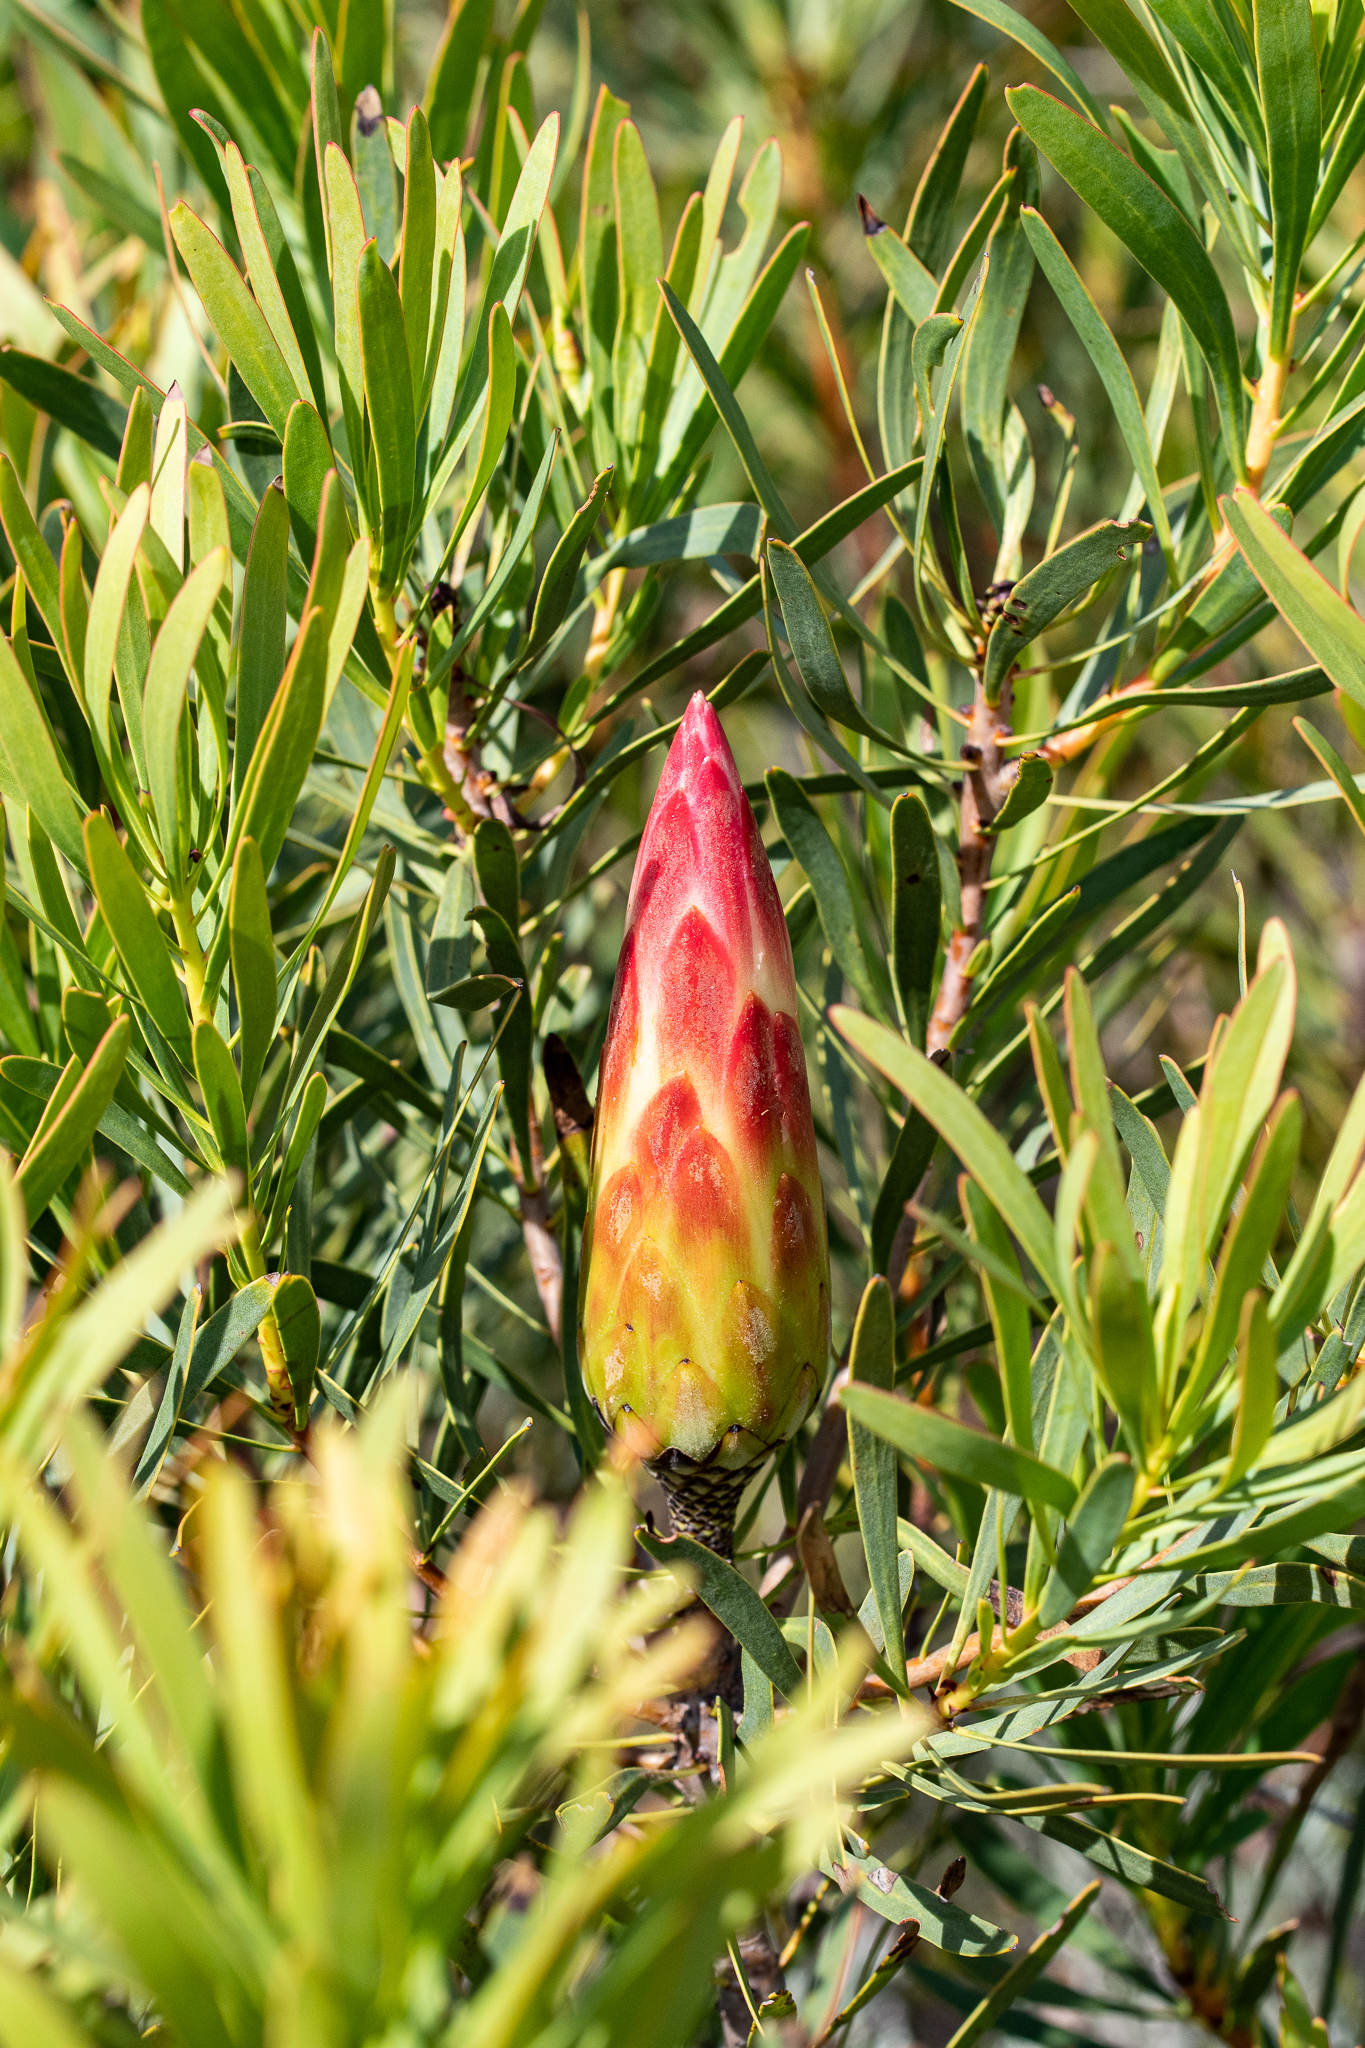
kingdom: Plantae
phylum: Tracheophyta
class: Magnoliopsida
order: Proteales
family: Proteaceae
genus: Protea
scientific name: Protea repens
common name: Sugarbush
